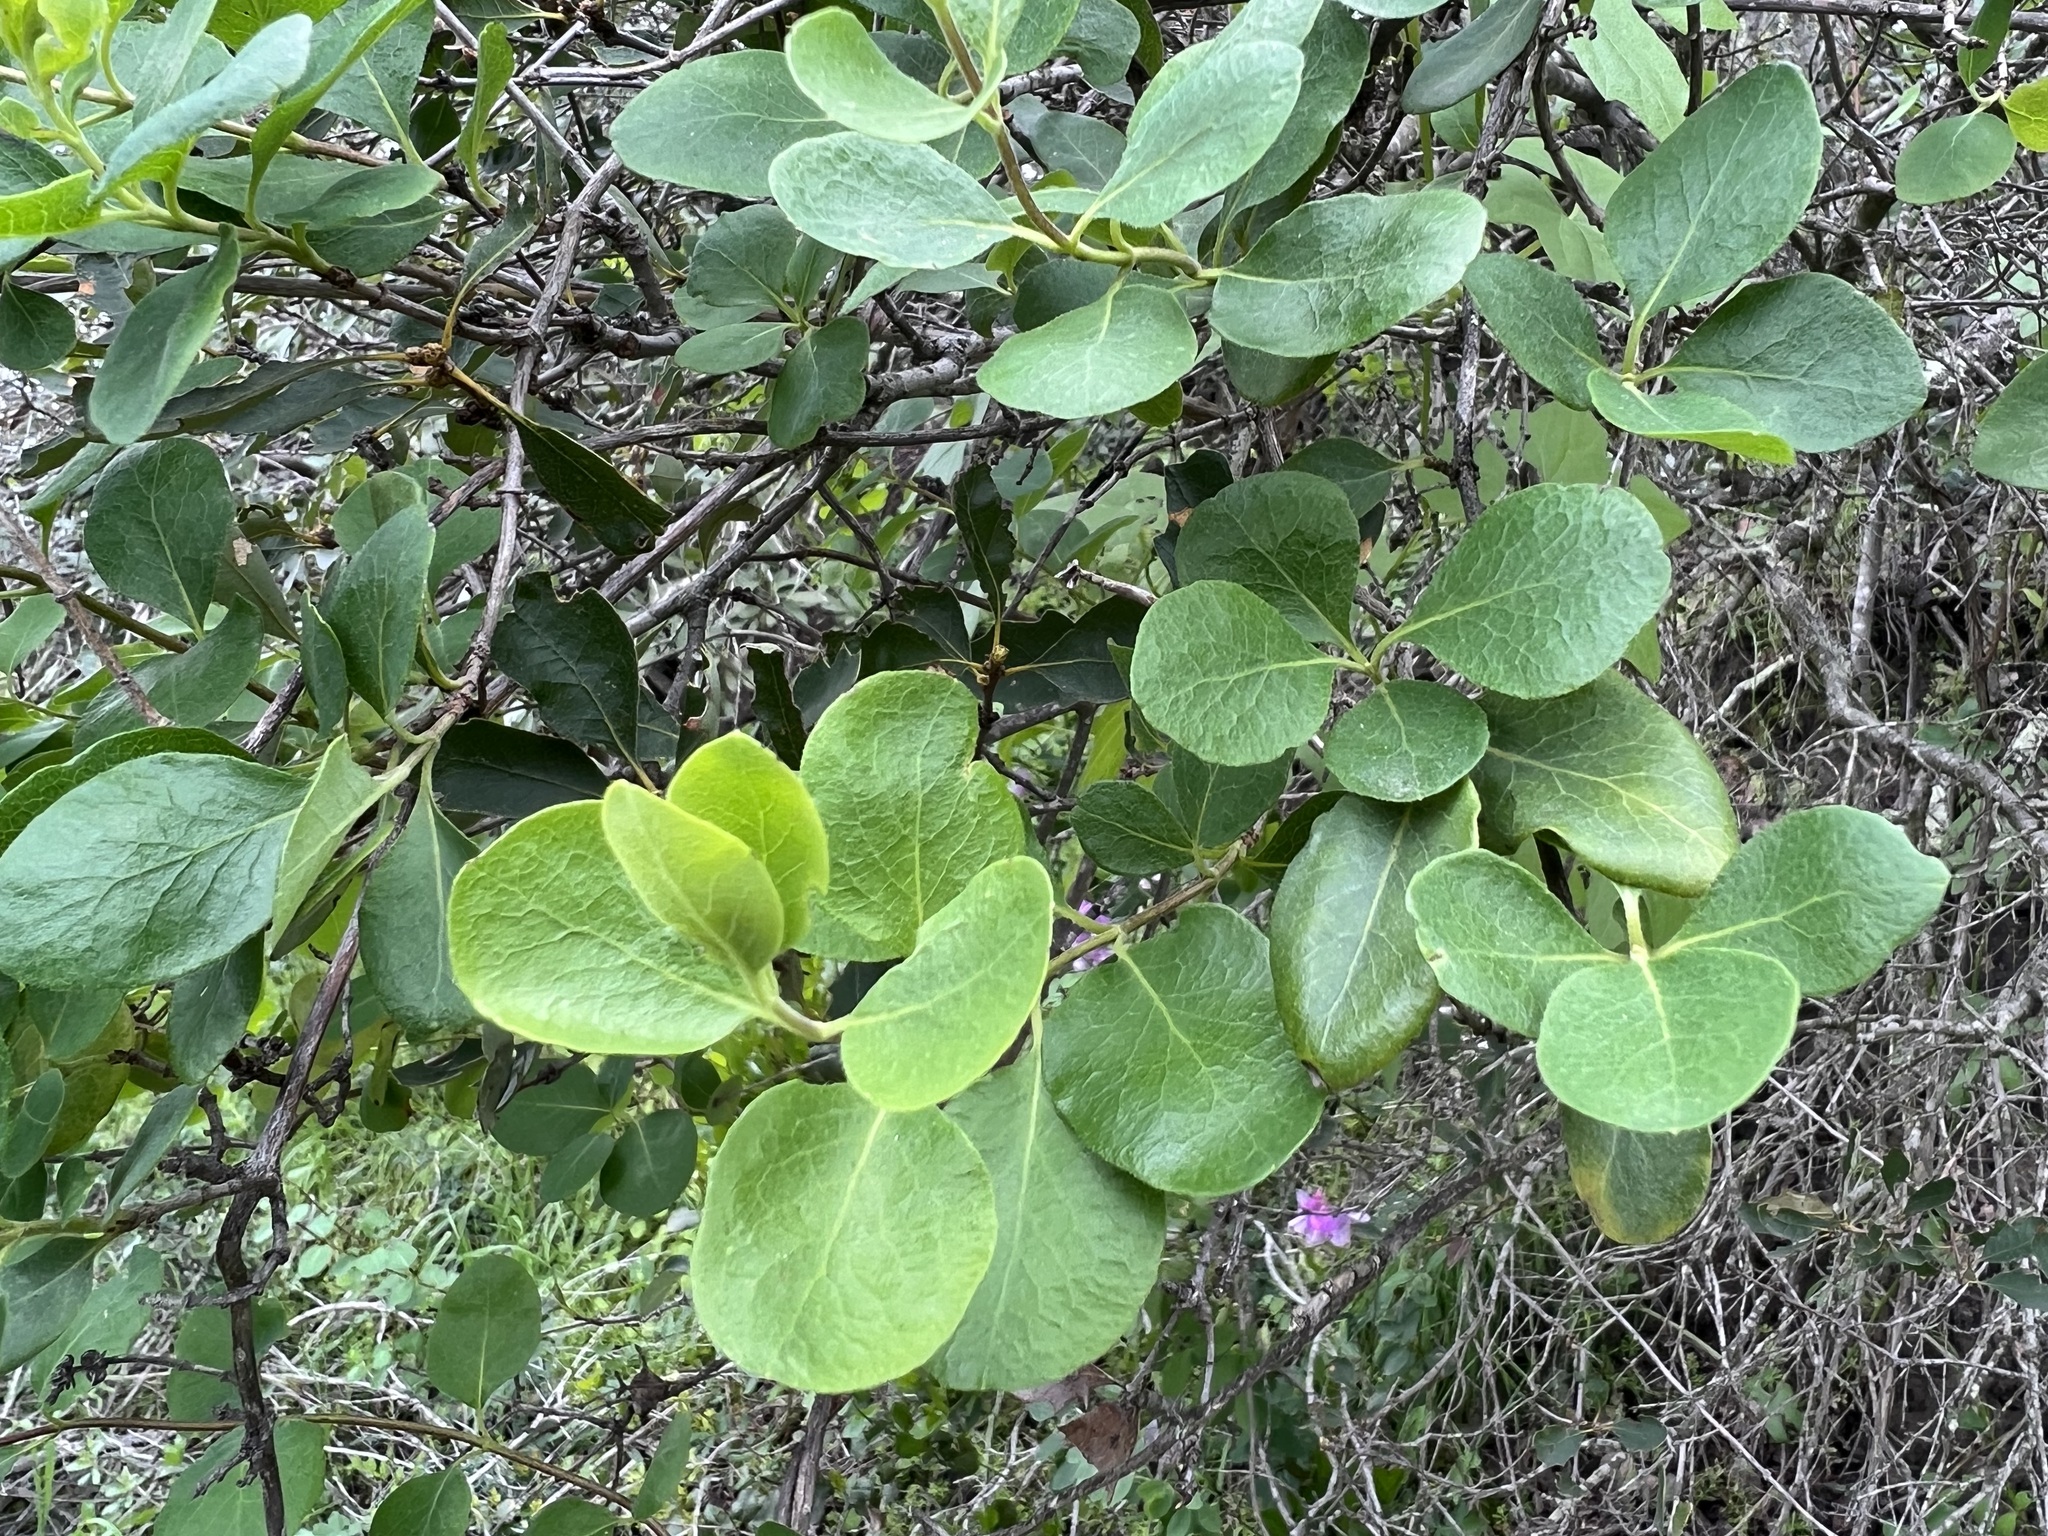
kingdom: Plantae
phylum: Tracheophyta
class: Magnoliopsida
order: Dipsacales
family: Caprifoliaceae
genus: Lonicera
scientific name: Lonicera subspicata
